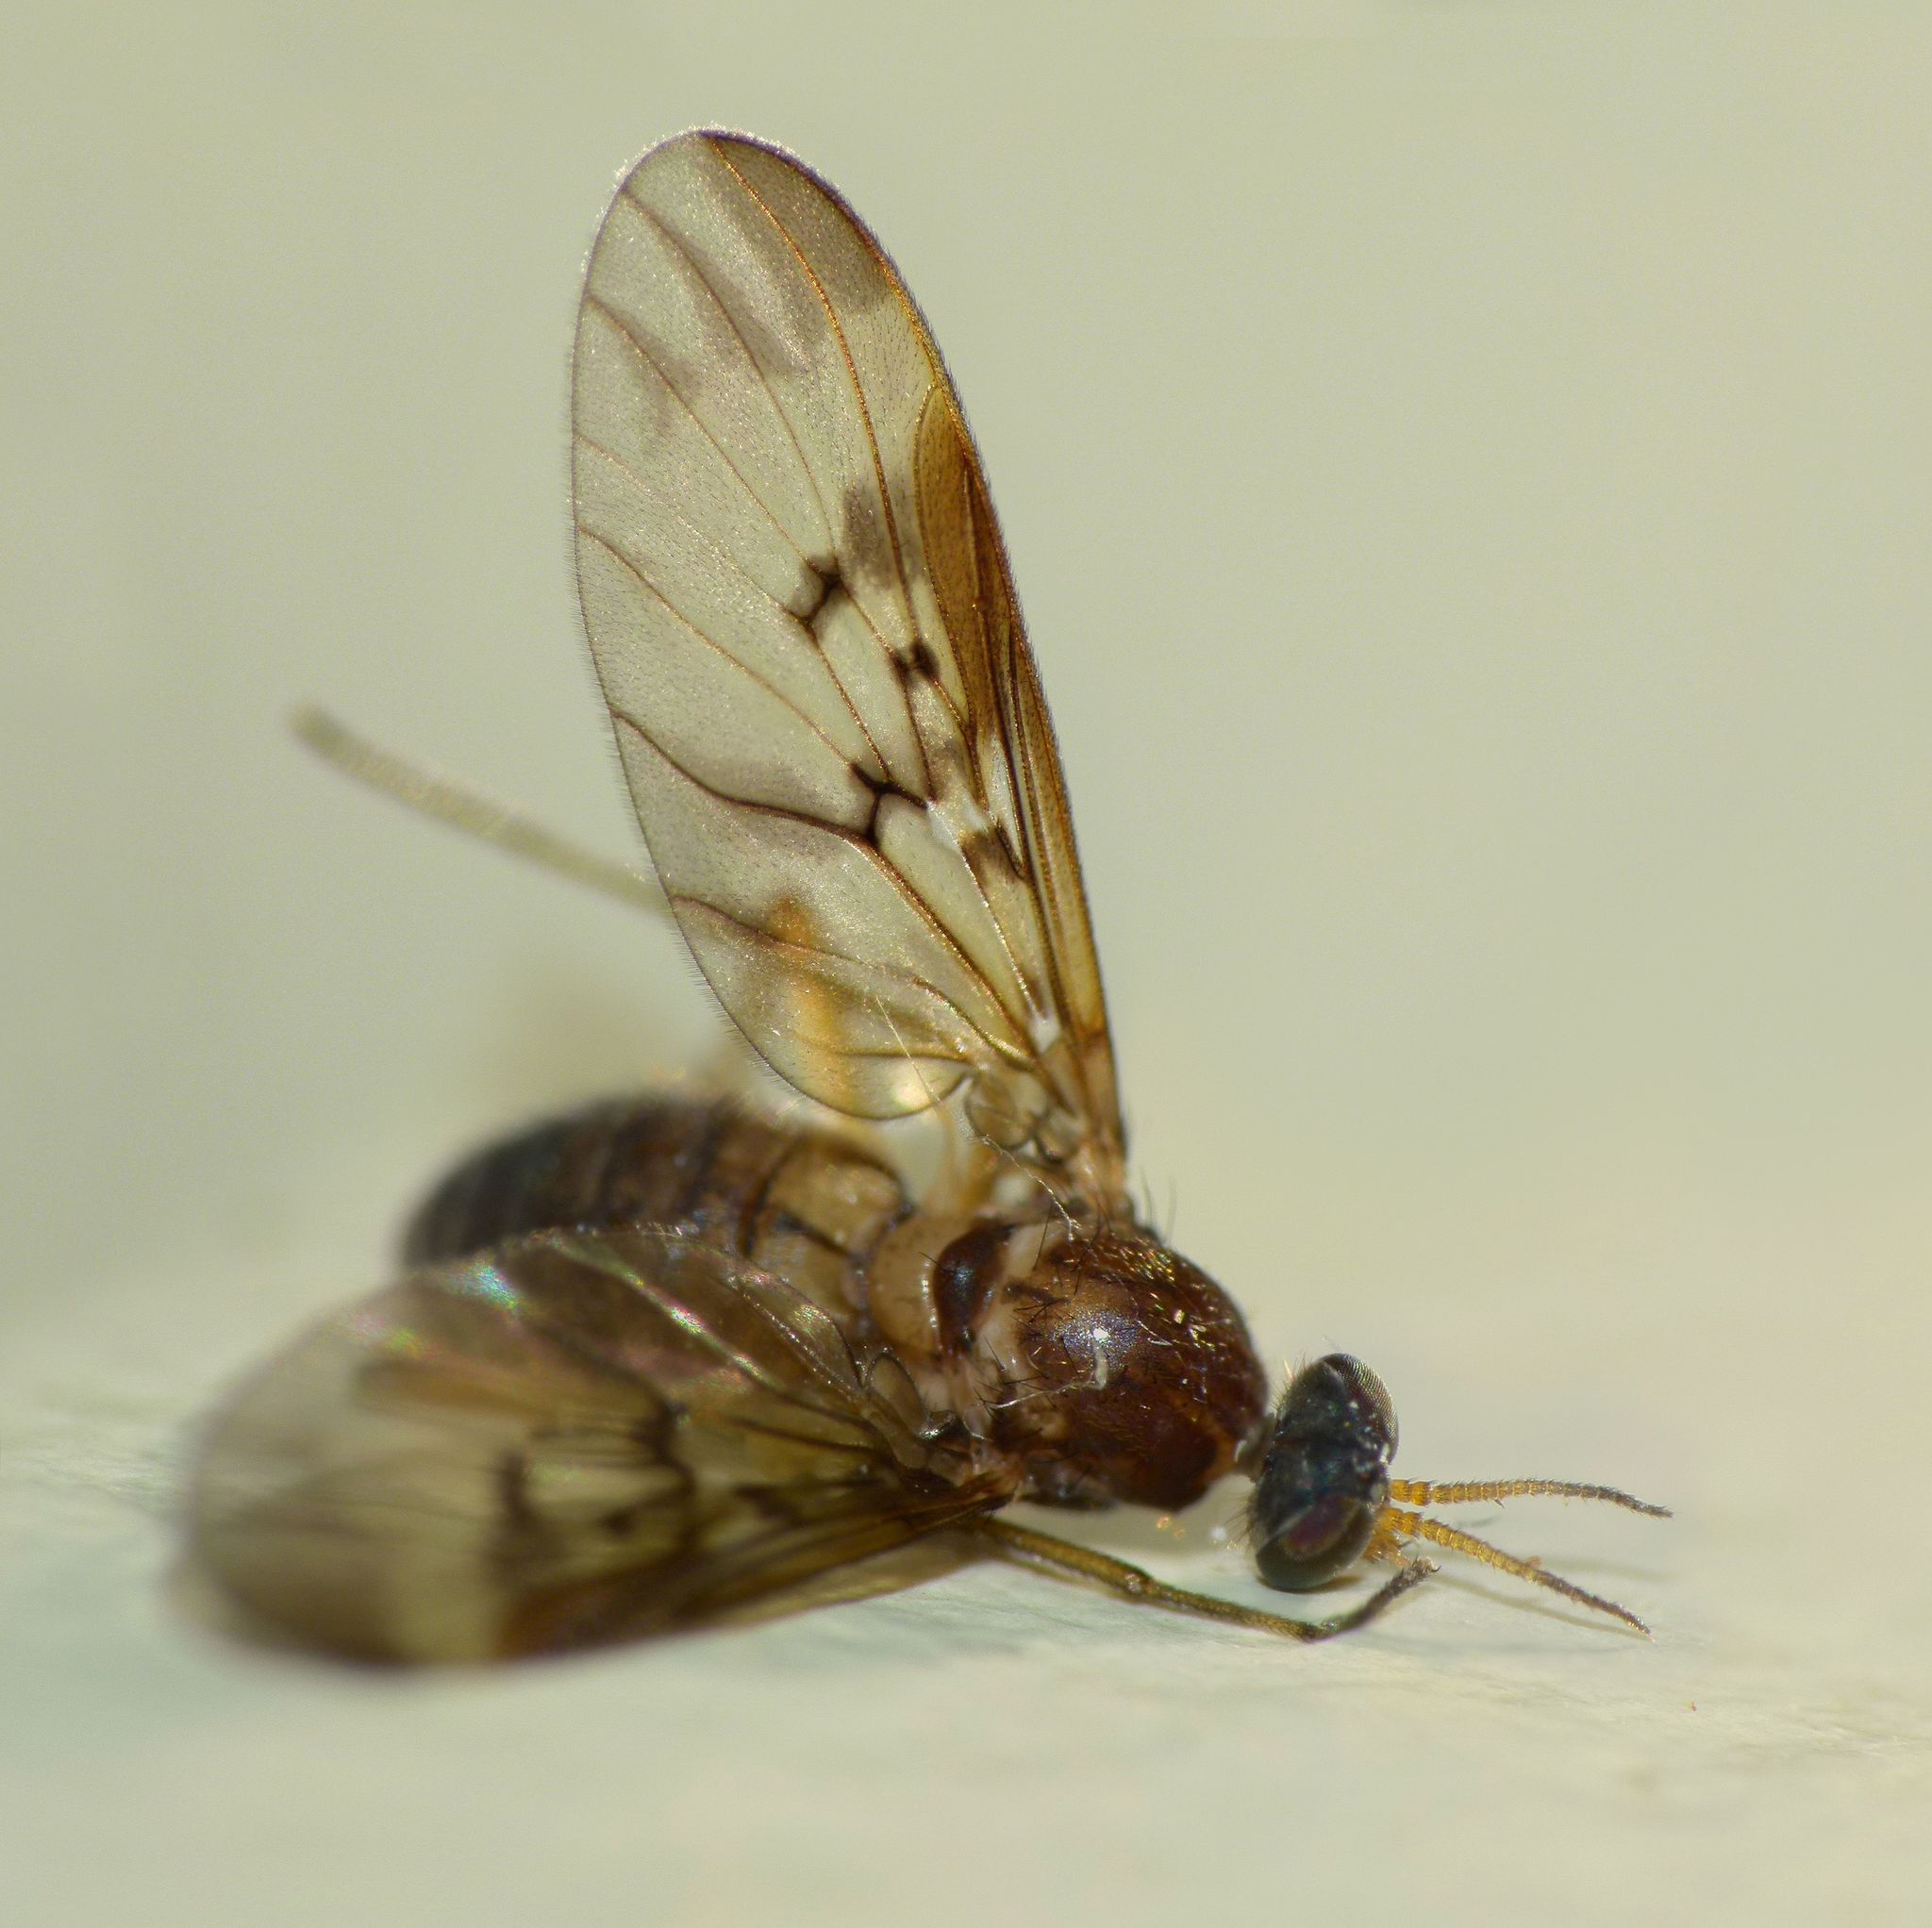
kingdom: Animalia
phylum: Arthropoda
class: Insecta
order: Diptera
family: Anisopodidae
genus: Sylvicola
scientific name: Sylvicola neozelandicus
